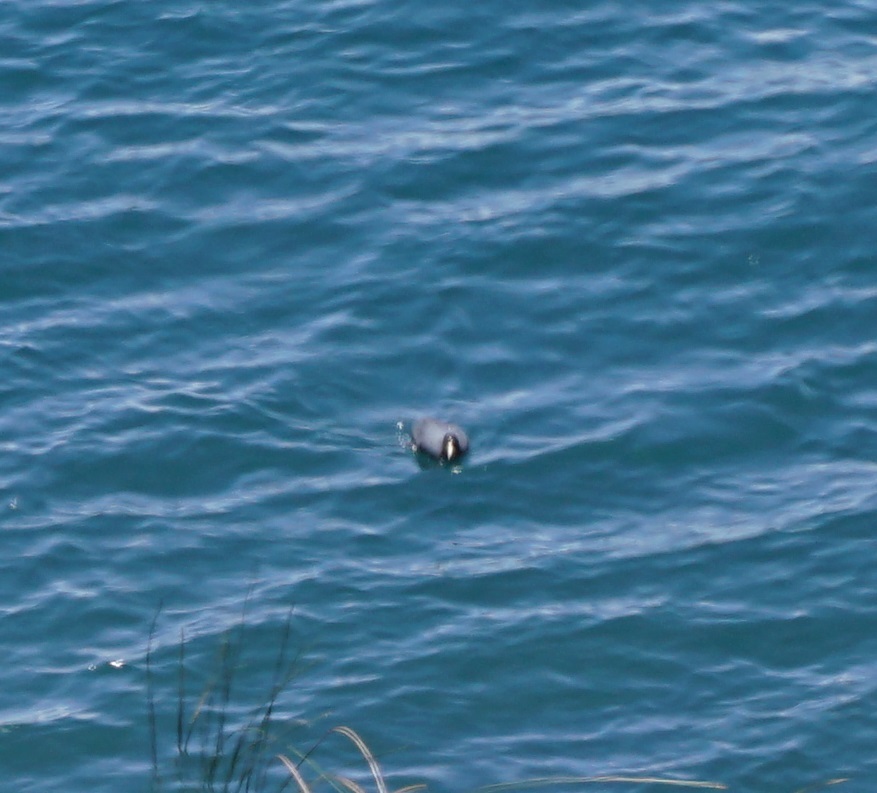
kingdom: Animalia
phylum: Chordata
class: Aves
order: Gruiformes
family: Rallidae
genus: Fulica
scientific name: Fulica ardesiaca
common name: Andean coot
